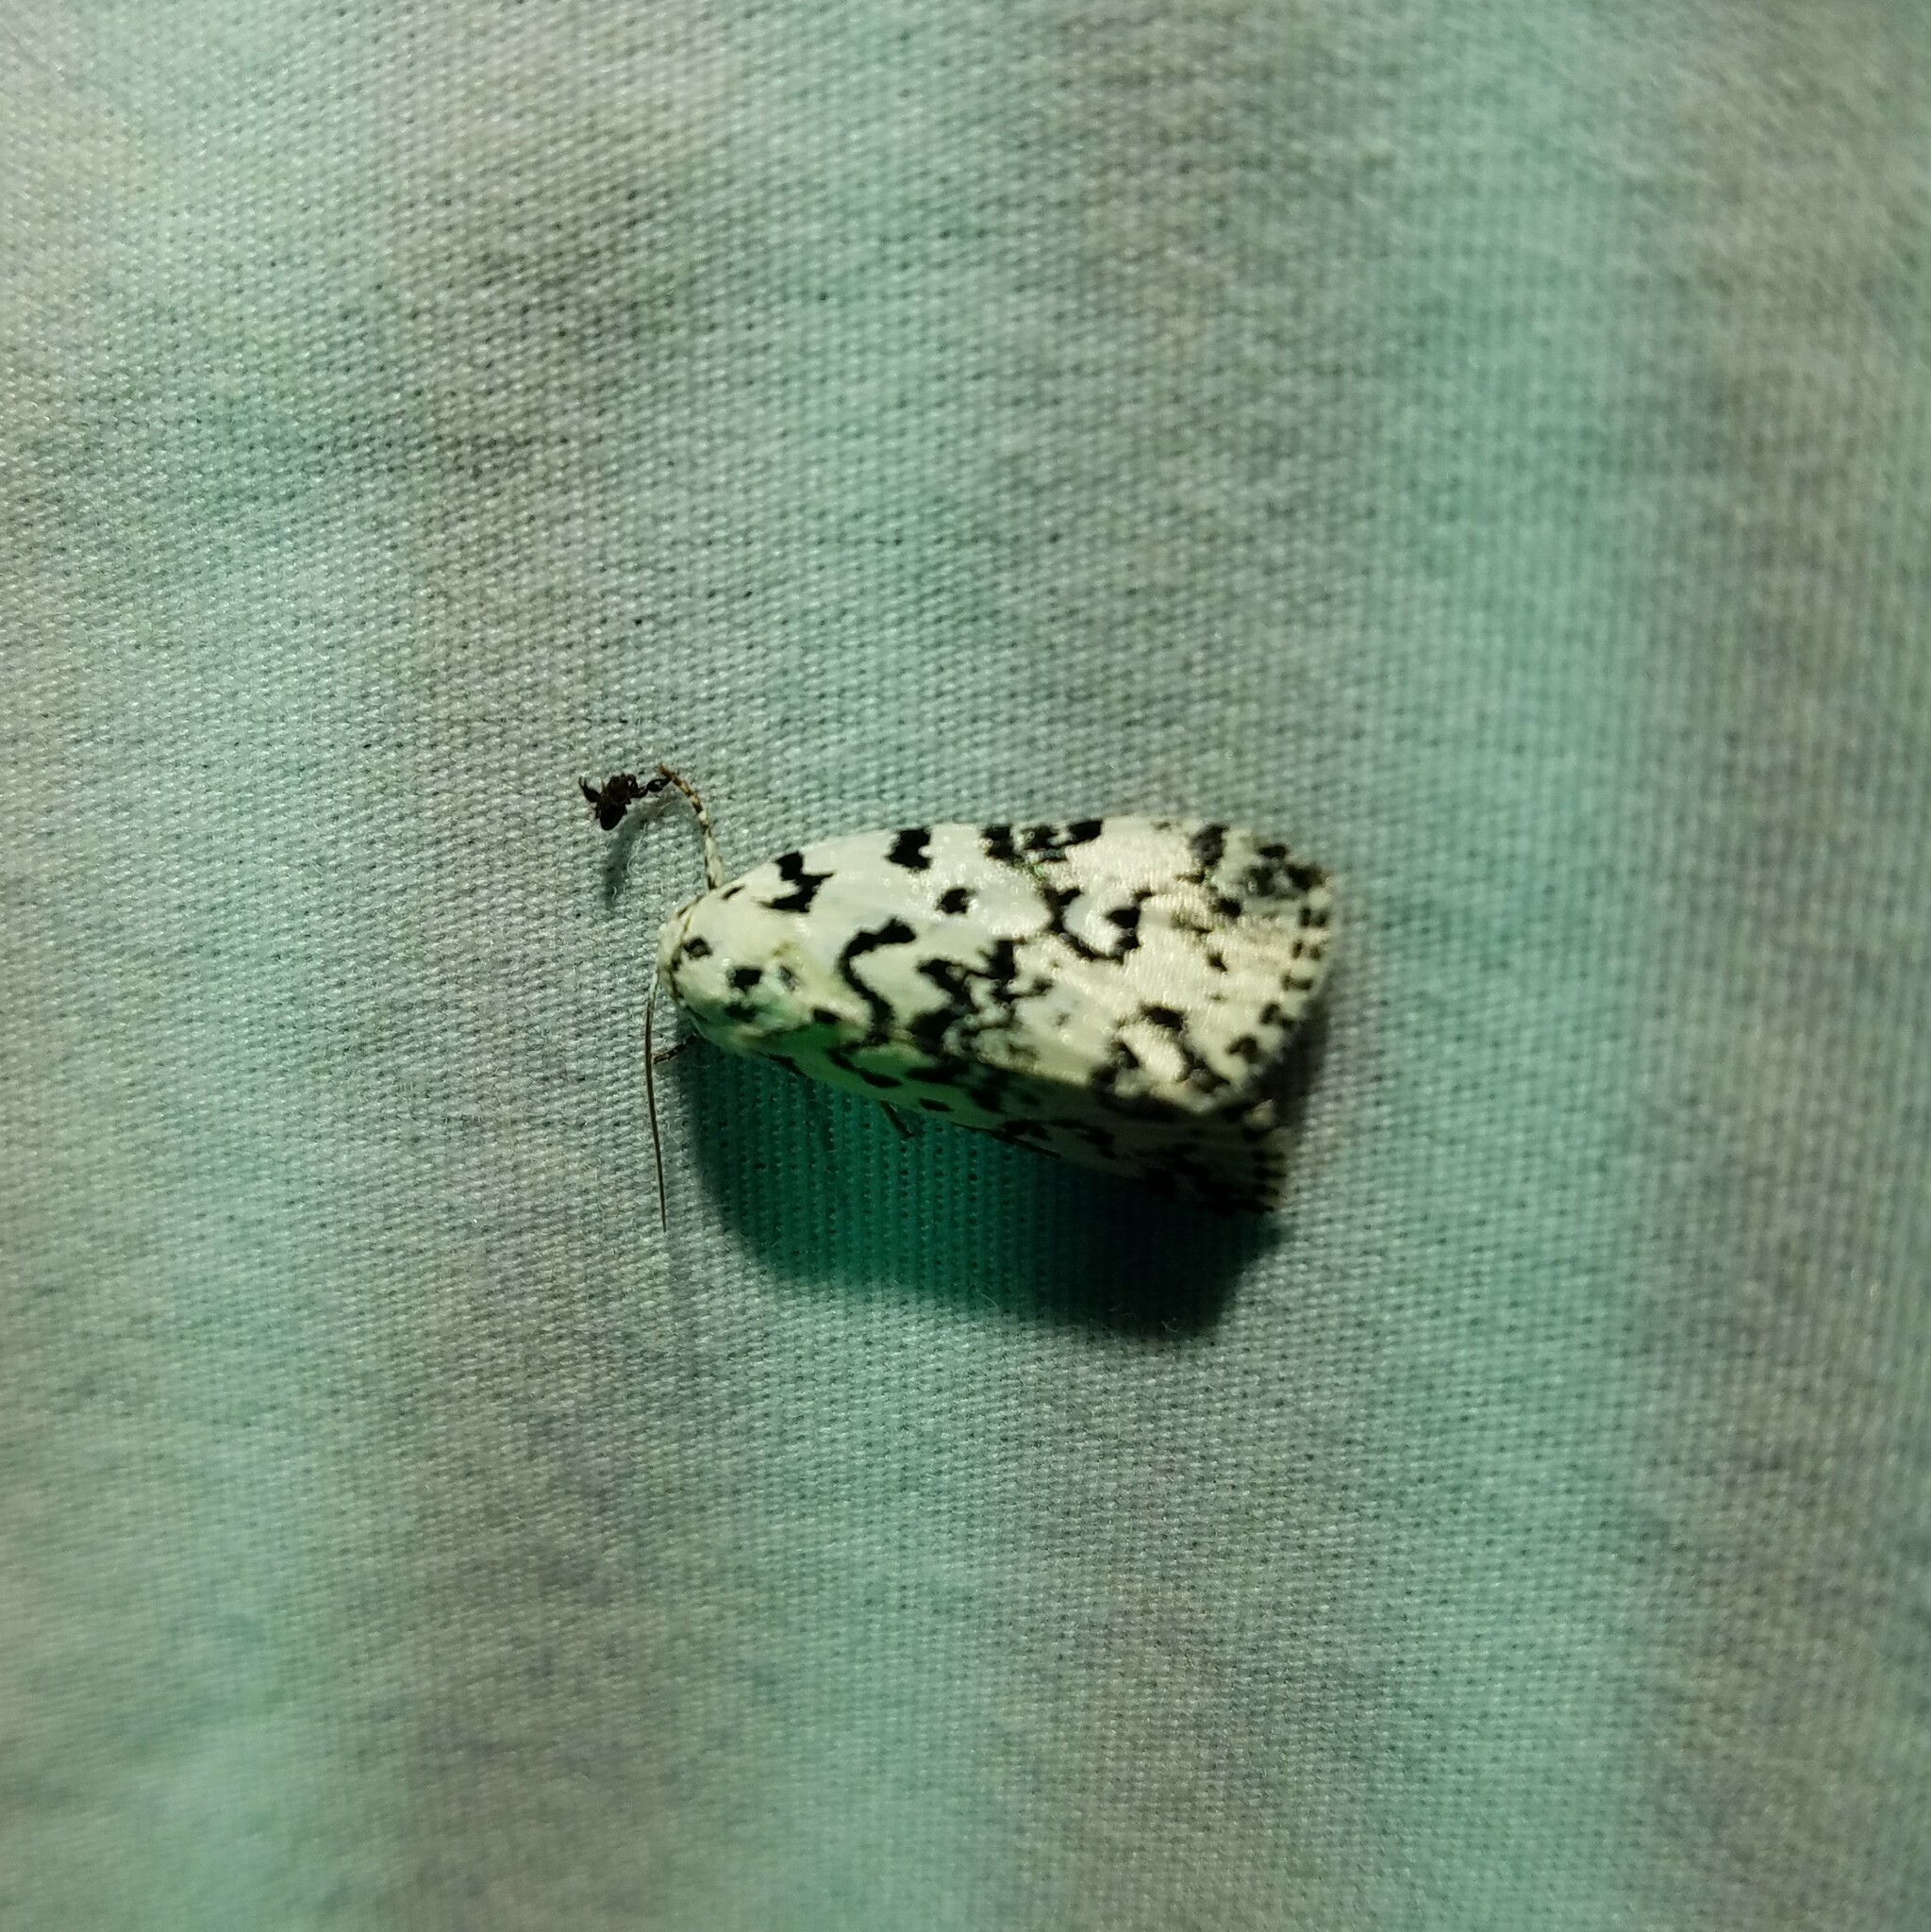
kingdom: Animalia
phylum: Arthropoda
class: Insecta
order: Lepidoptera
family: Noctuidae
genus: Polygrammate
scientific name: Polygrammate hebraeicum
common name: Hebrew moth
